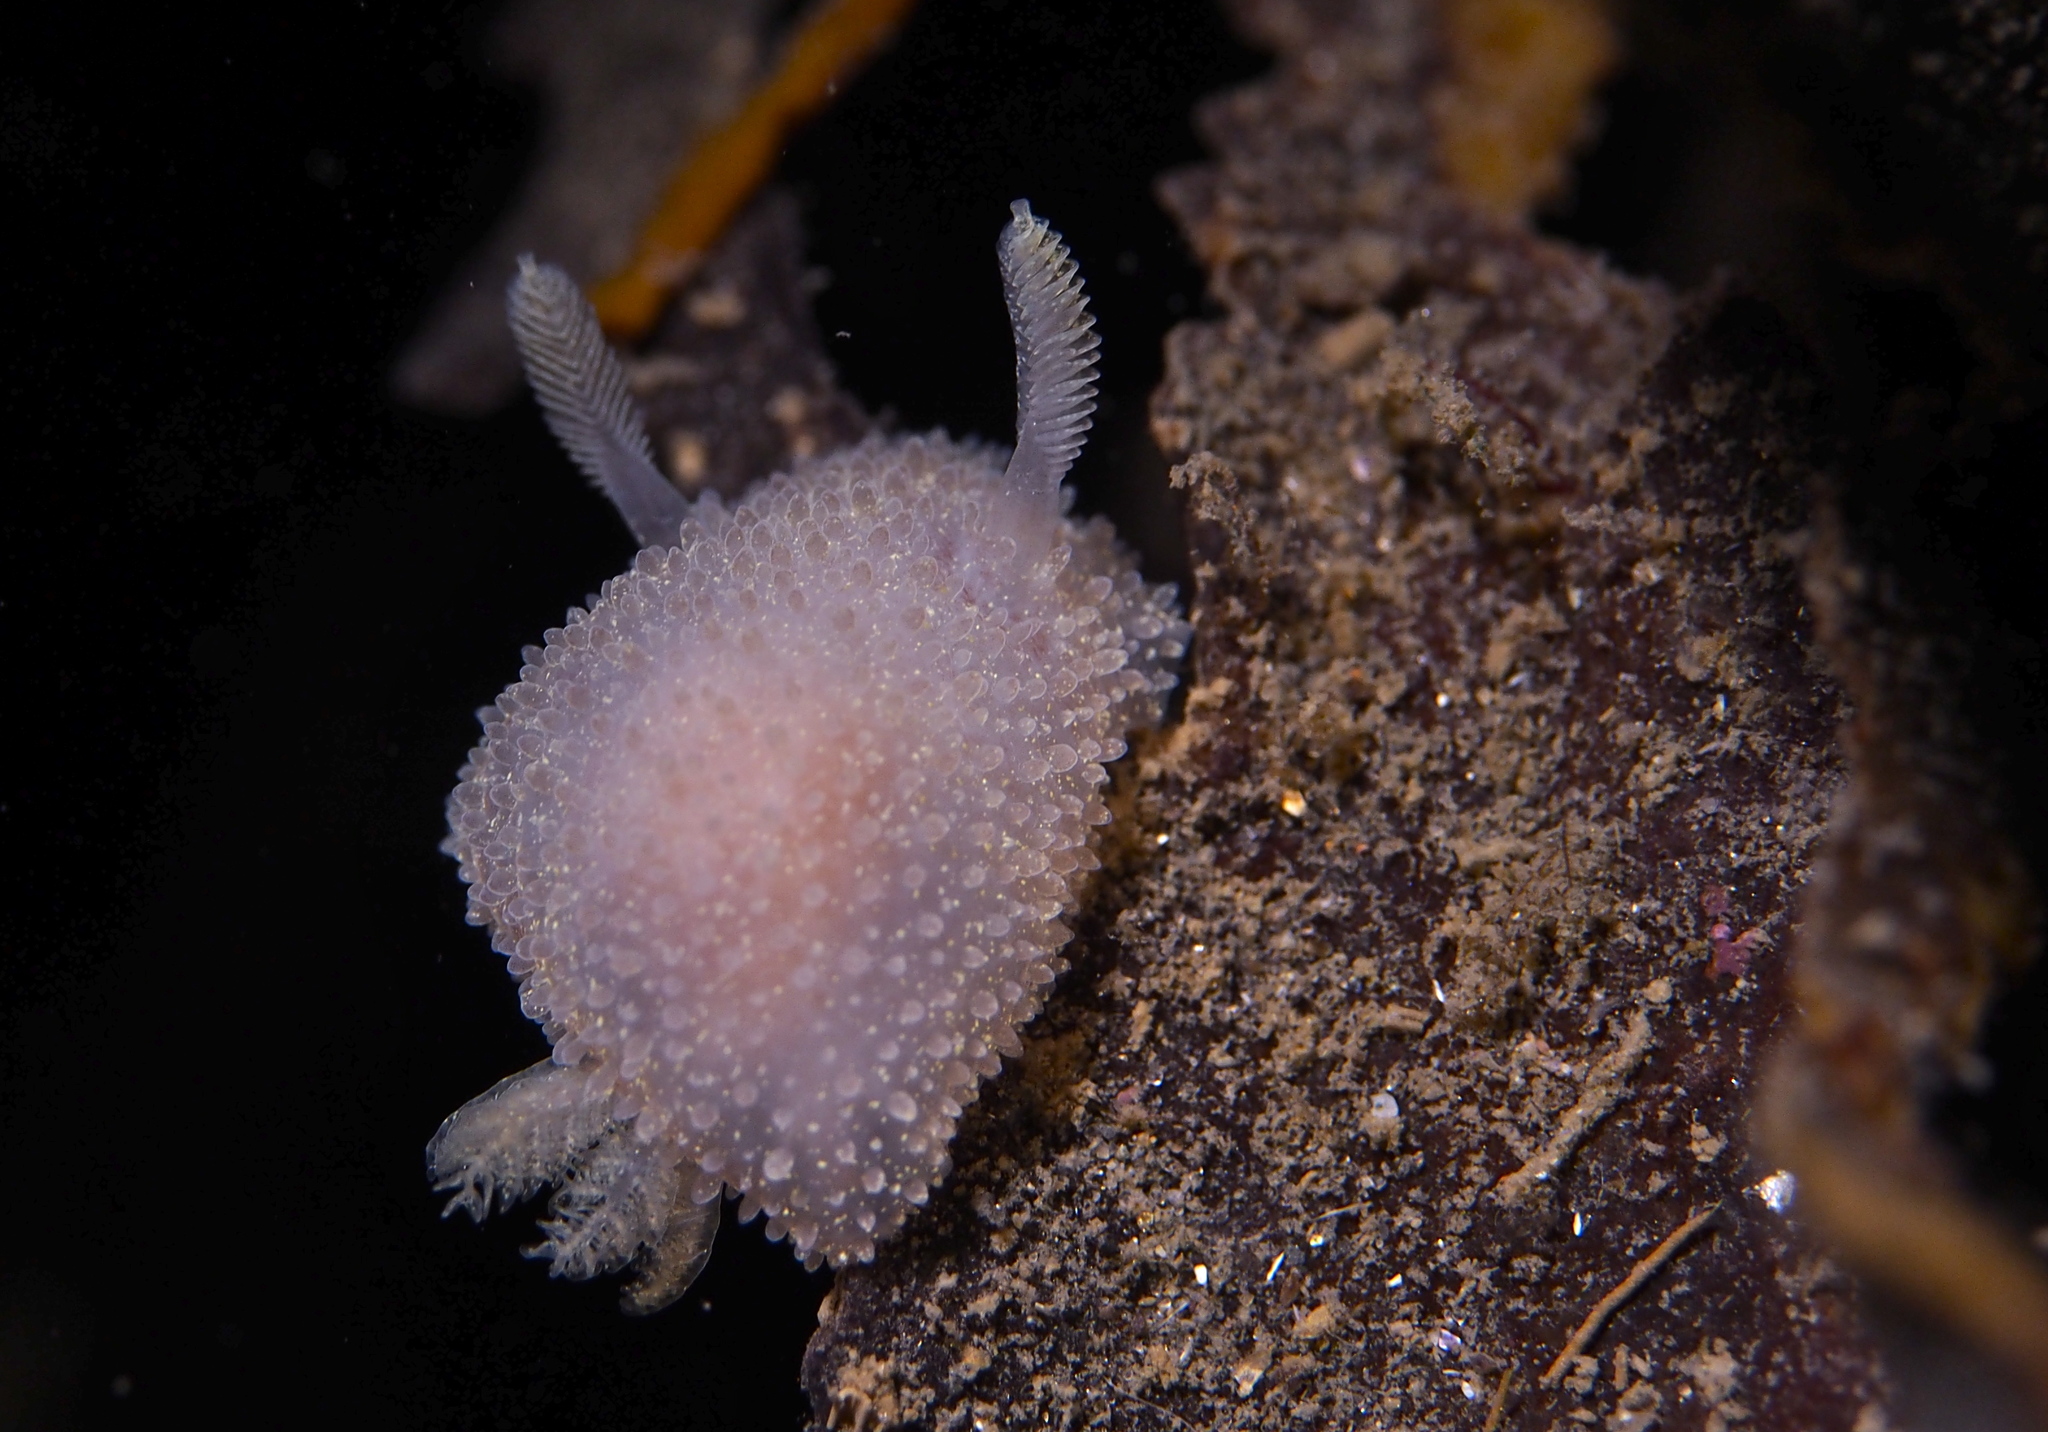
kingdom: Animalia
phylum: Mollusca
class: Gastropoda
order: Nudibranchia
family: Onchidorididae
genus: Acanthodoris
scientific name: Acanthodoris pilosa
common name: Hairy spiny doris
